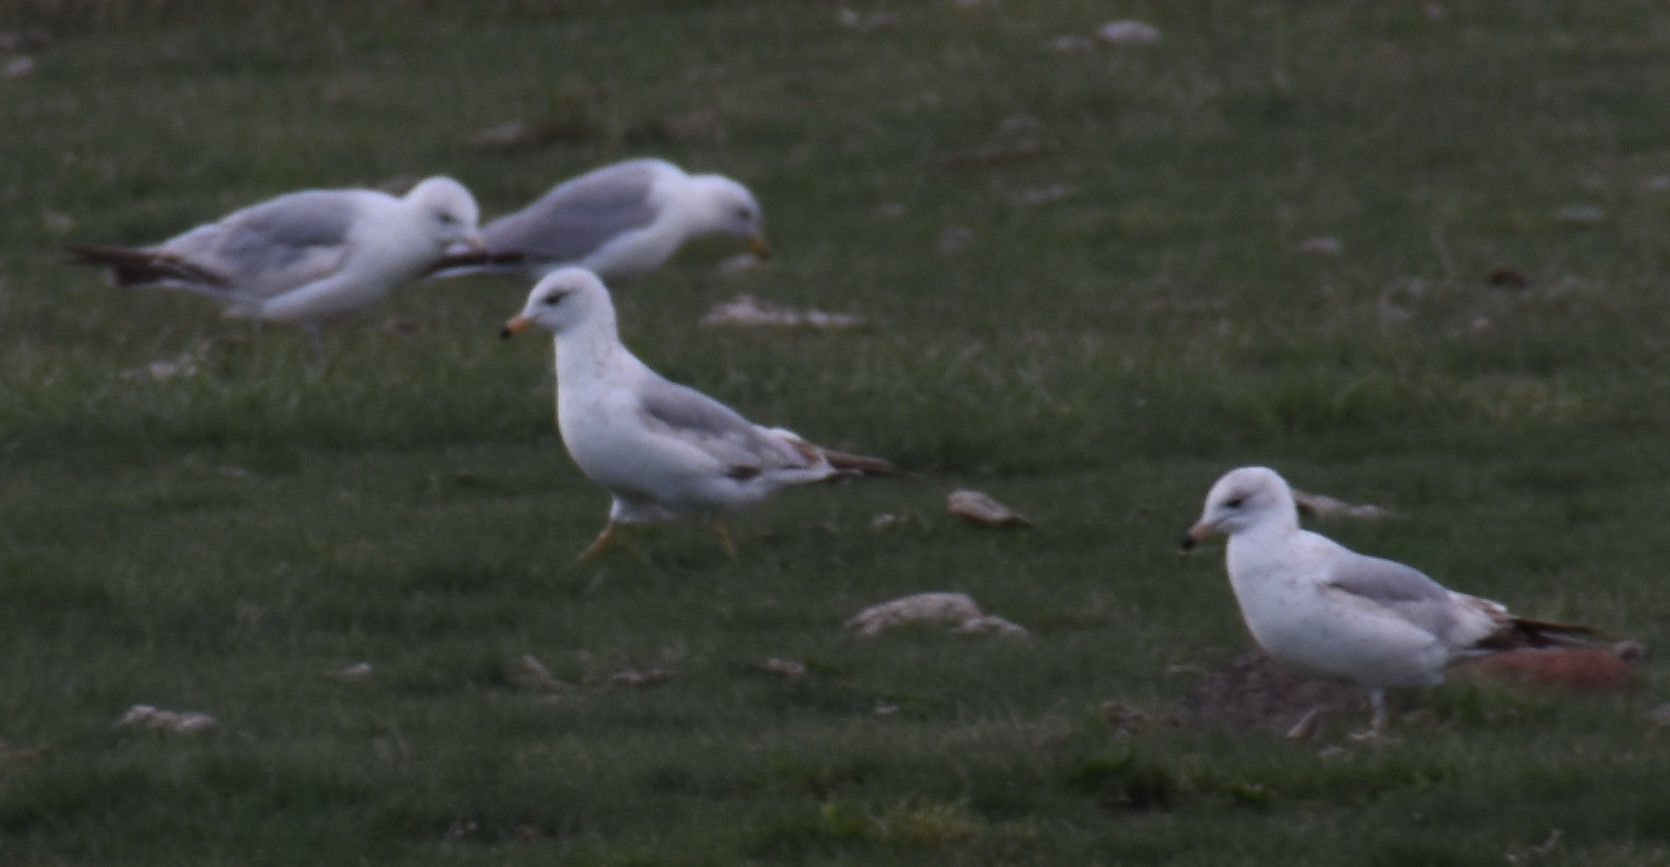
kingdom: Animalia
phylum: Chordata
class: Aves
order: Charadriiformes
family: Laridae
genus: Larus
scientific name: Larus delawarensis
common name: Ring-billed gull
